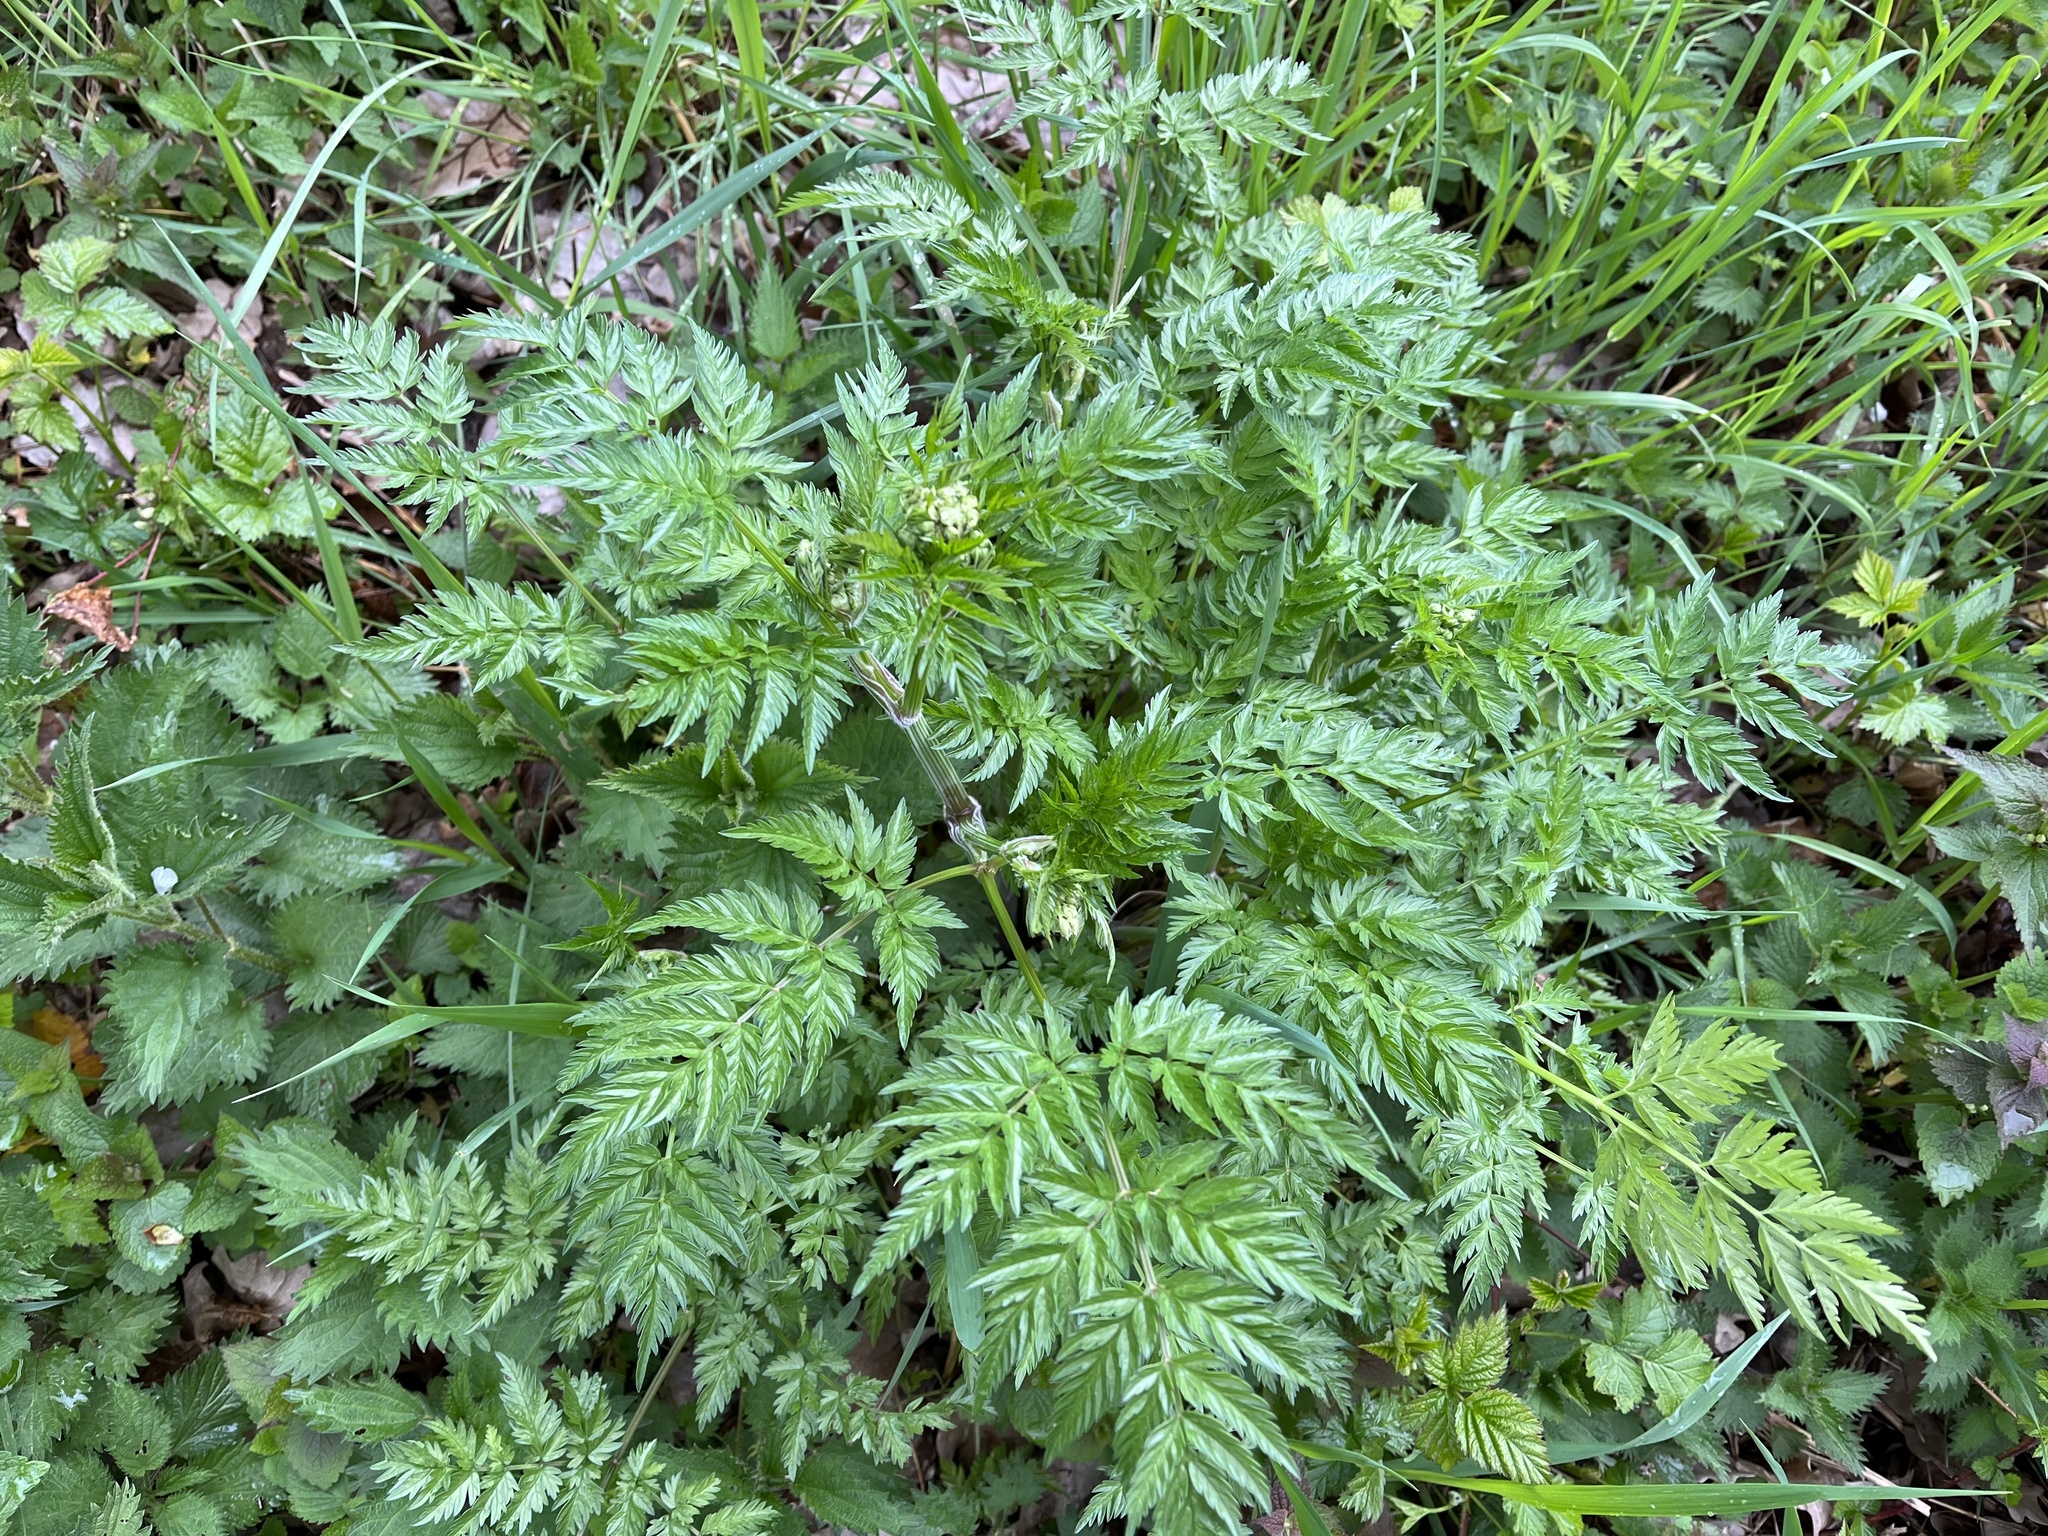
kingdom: Plantae
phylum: Tracheophyta
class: Magnoliopsida
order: Apiales
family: Apiaceae
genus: Anthriscus
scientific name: Anthriscus sylvestris
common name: Cow parsley
